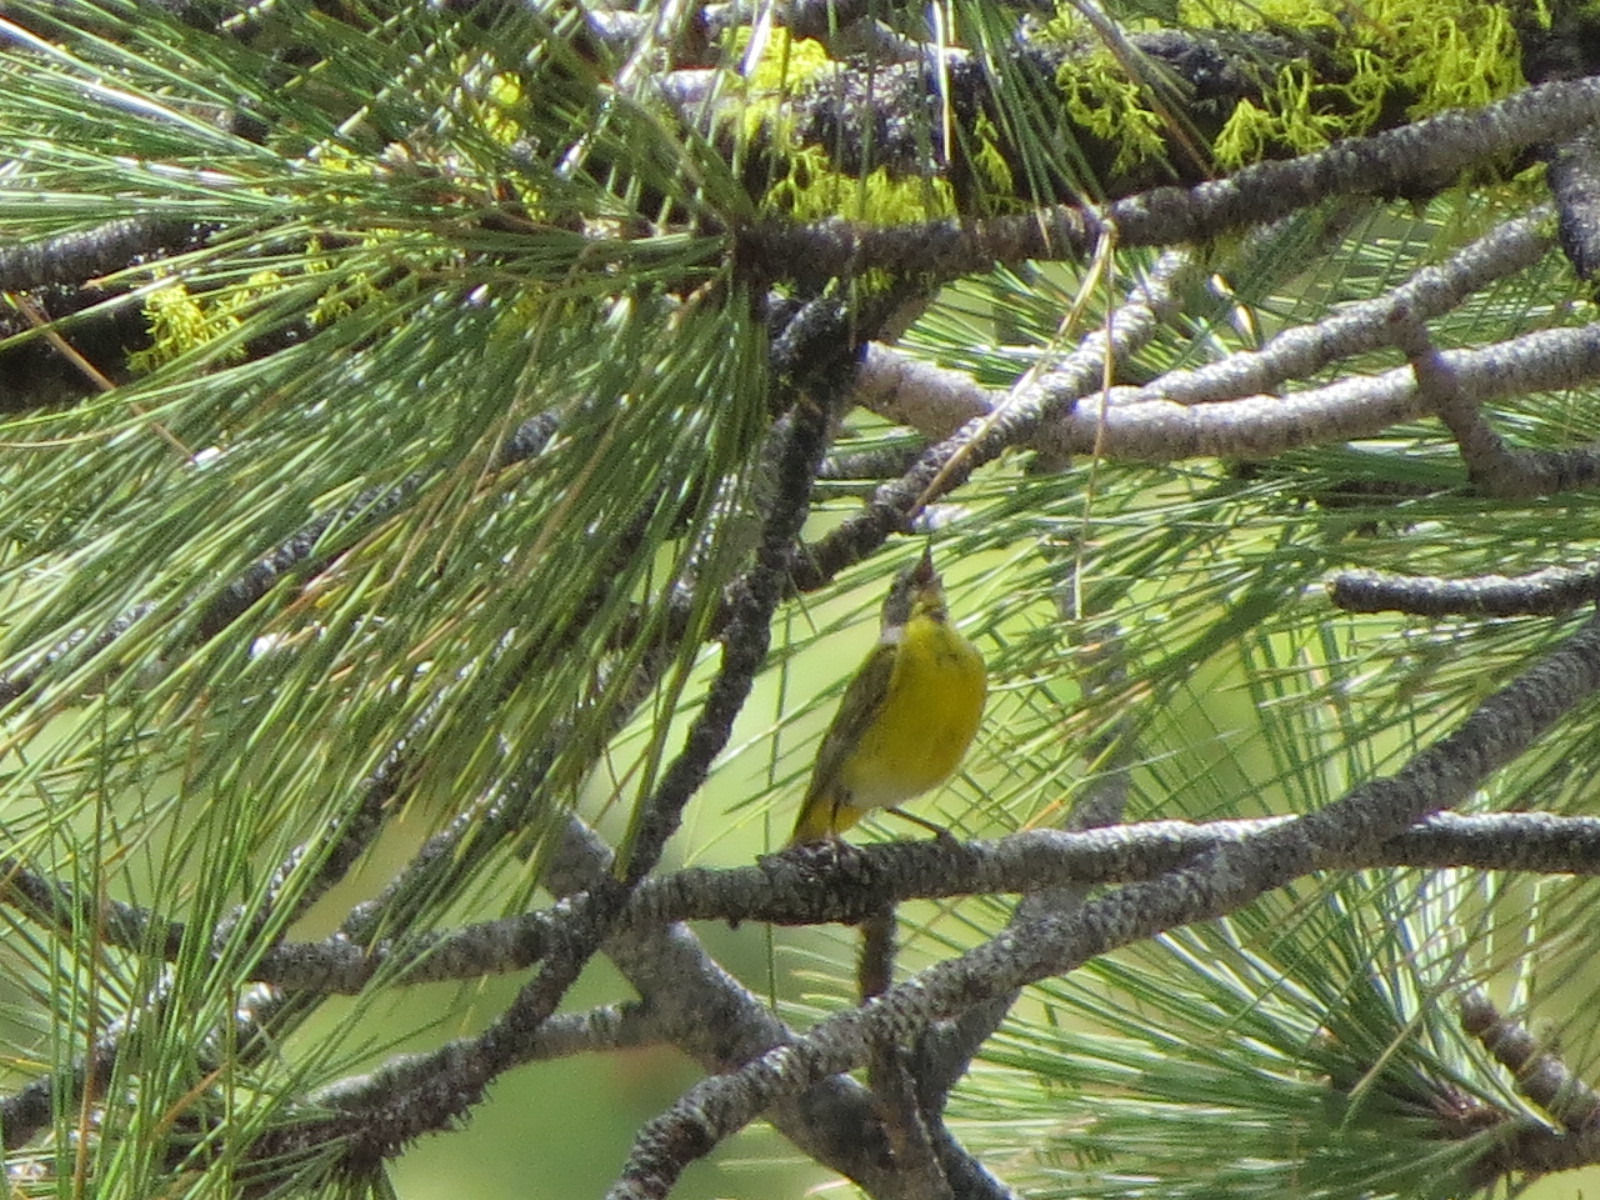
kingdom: Animalia
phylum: Chordata
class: Aves
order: Passeriformes
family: Parulidae
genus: Leiothlypis
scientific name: Leiothlypis ruficapilla
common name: Nashville warbler
